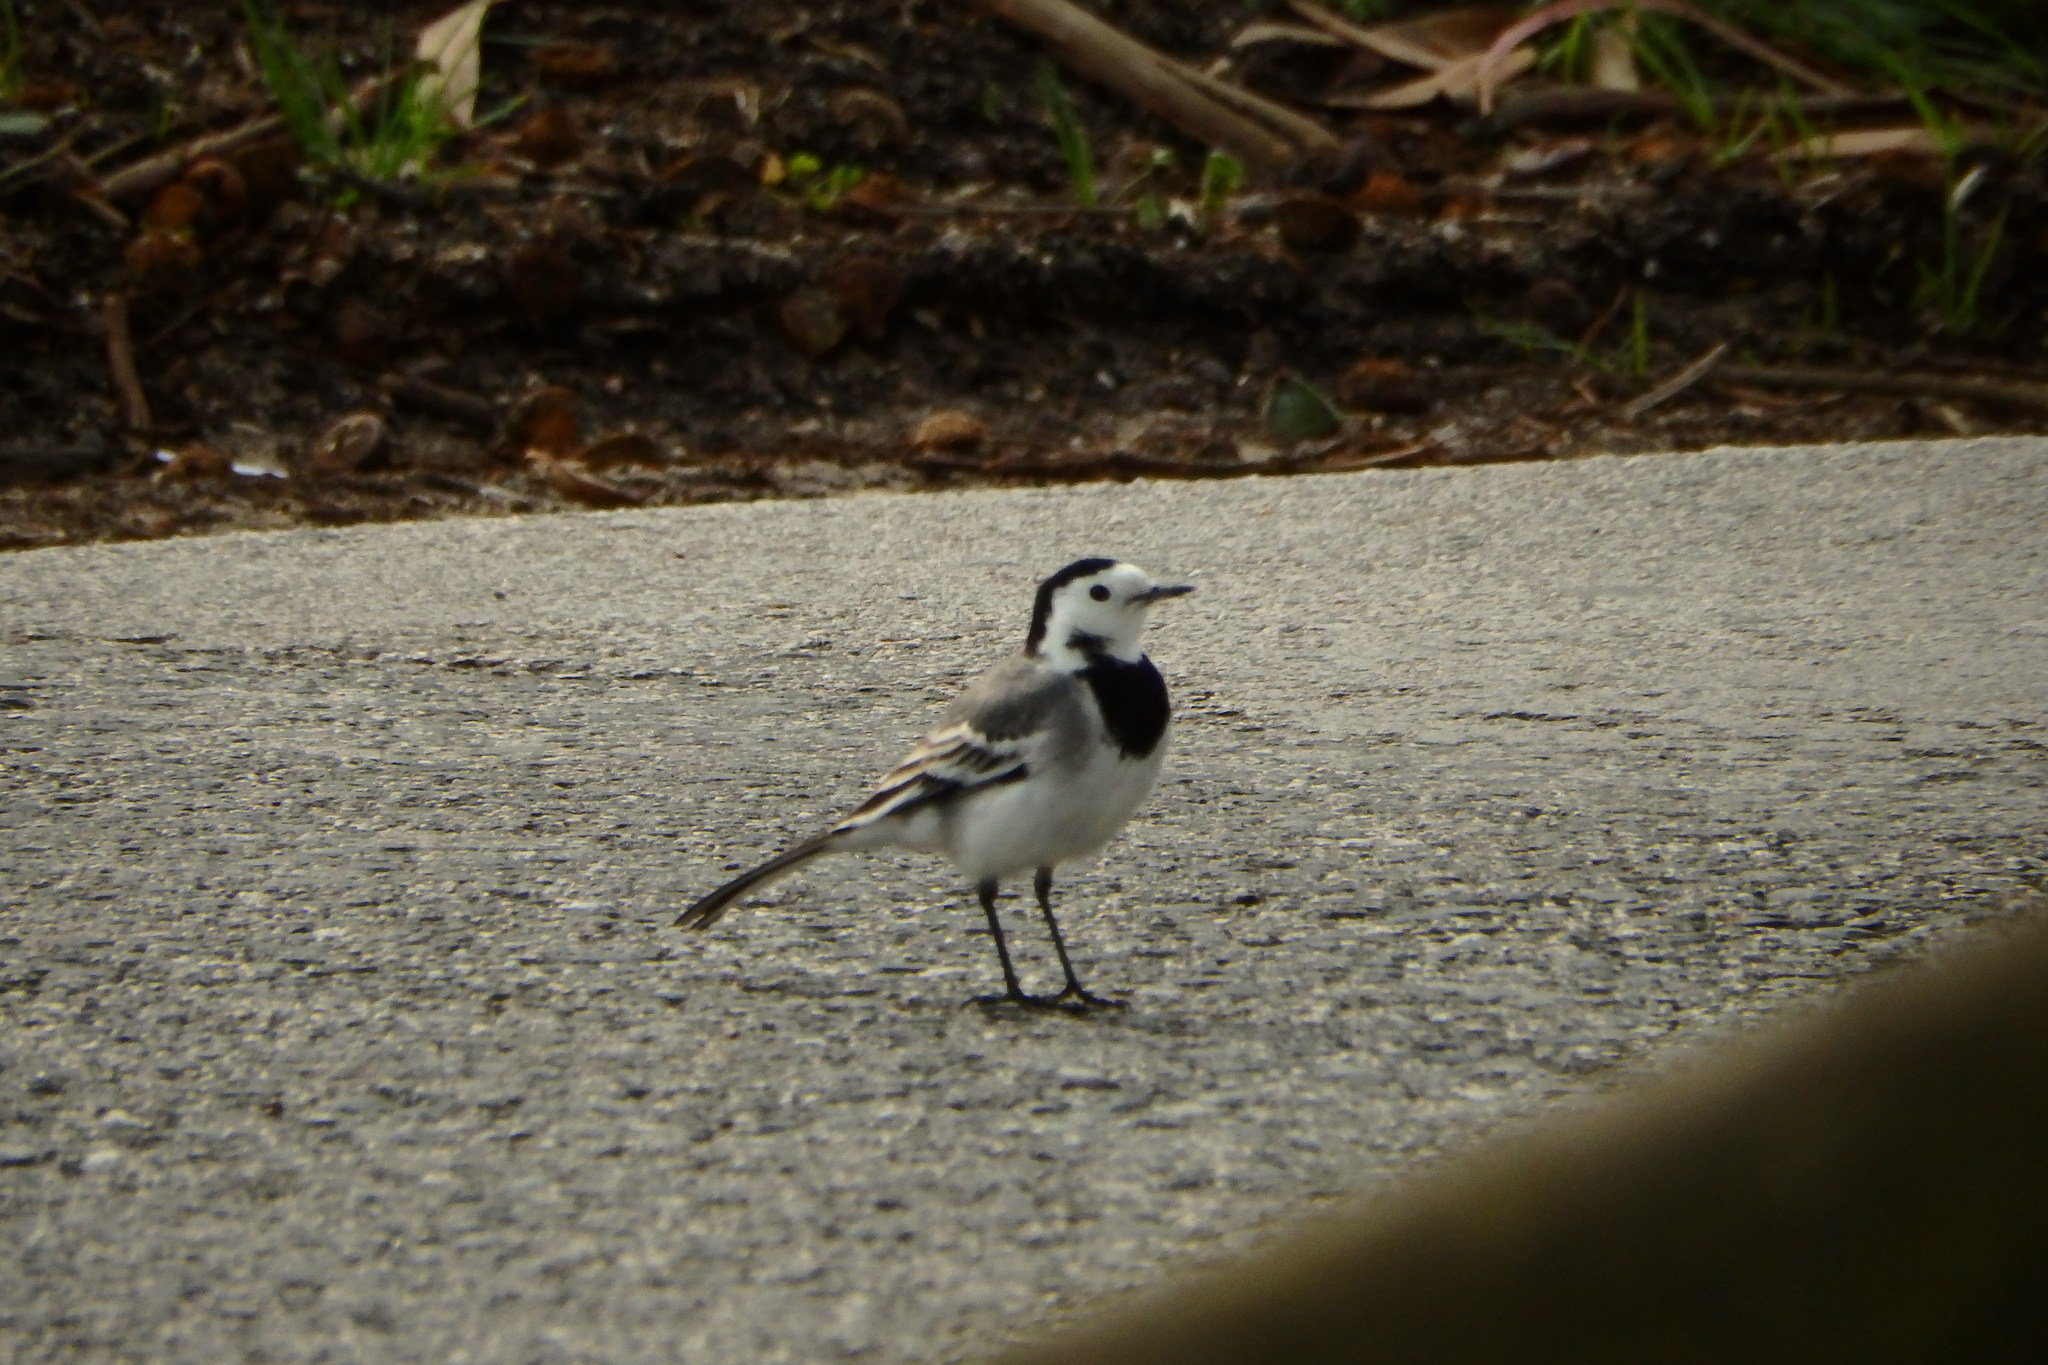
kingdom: Animalia
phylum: Chordata
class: Aves
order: Passeriformes
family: Motacillidae
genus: Motacilla
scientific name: Motacilla alba
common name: White wagtail
